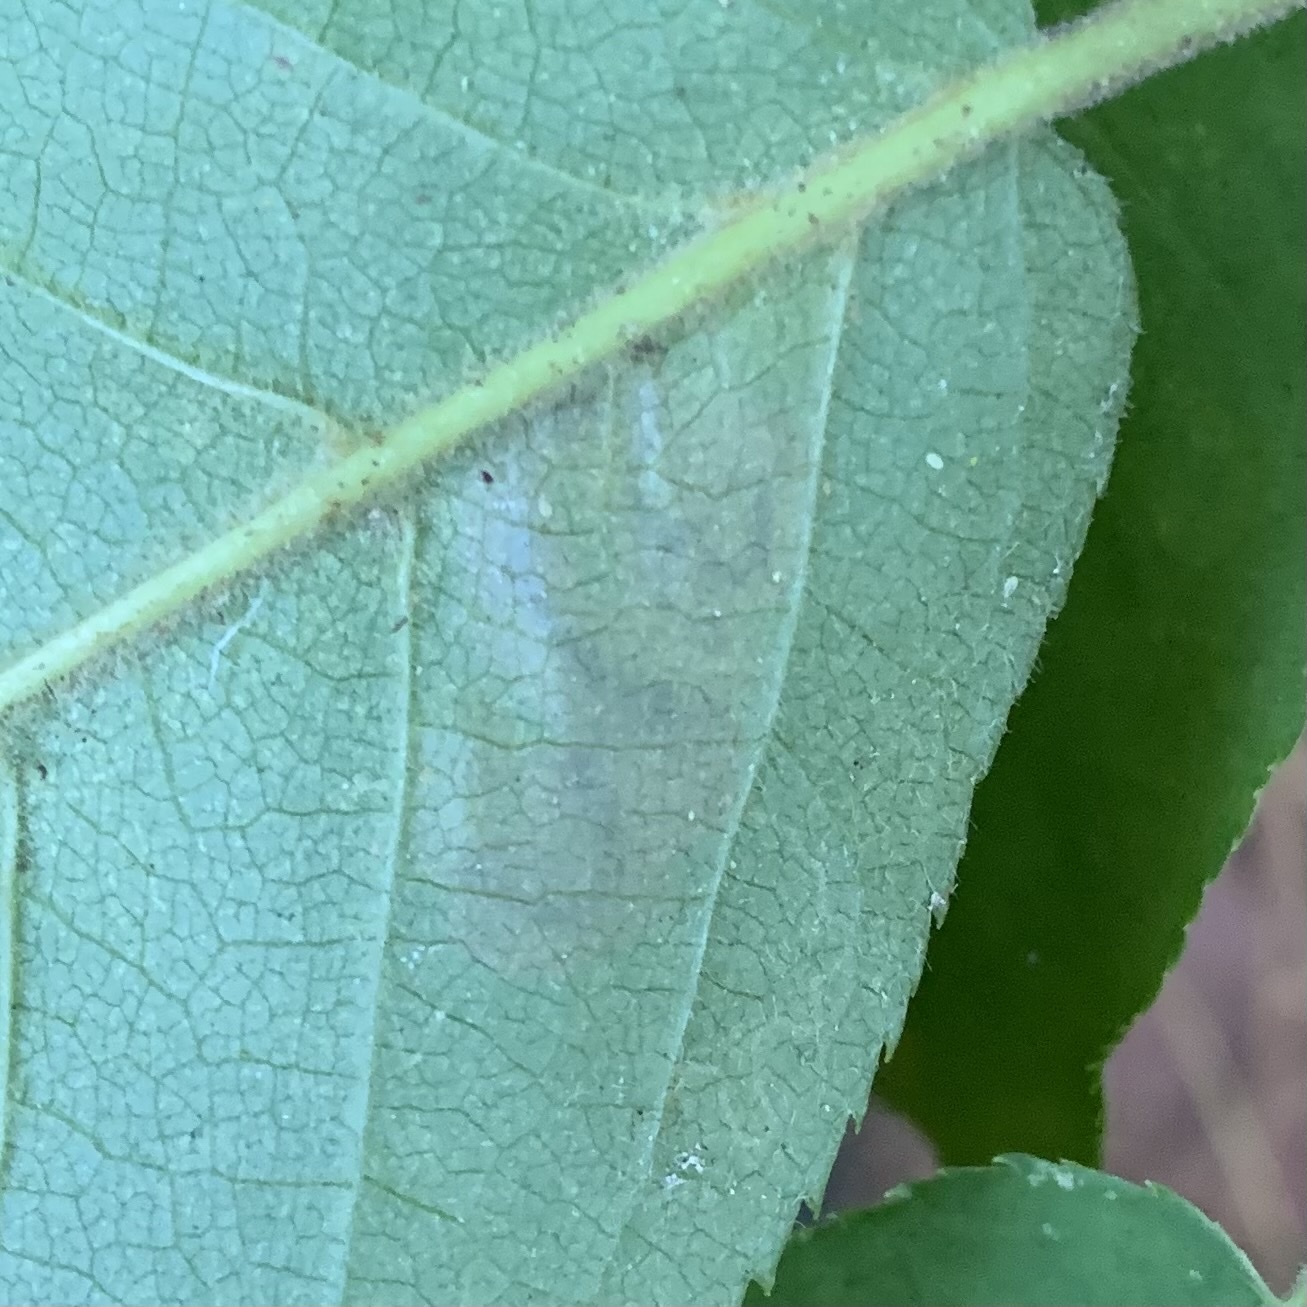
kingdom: Animalia
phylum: Arthropoda
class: Insecta
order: Lepidoptera
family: Nepticulidae
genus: Stigmella
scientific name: Stigmella slingerlandella
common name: Slingerland's plum leafminer moth
